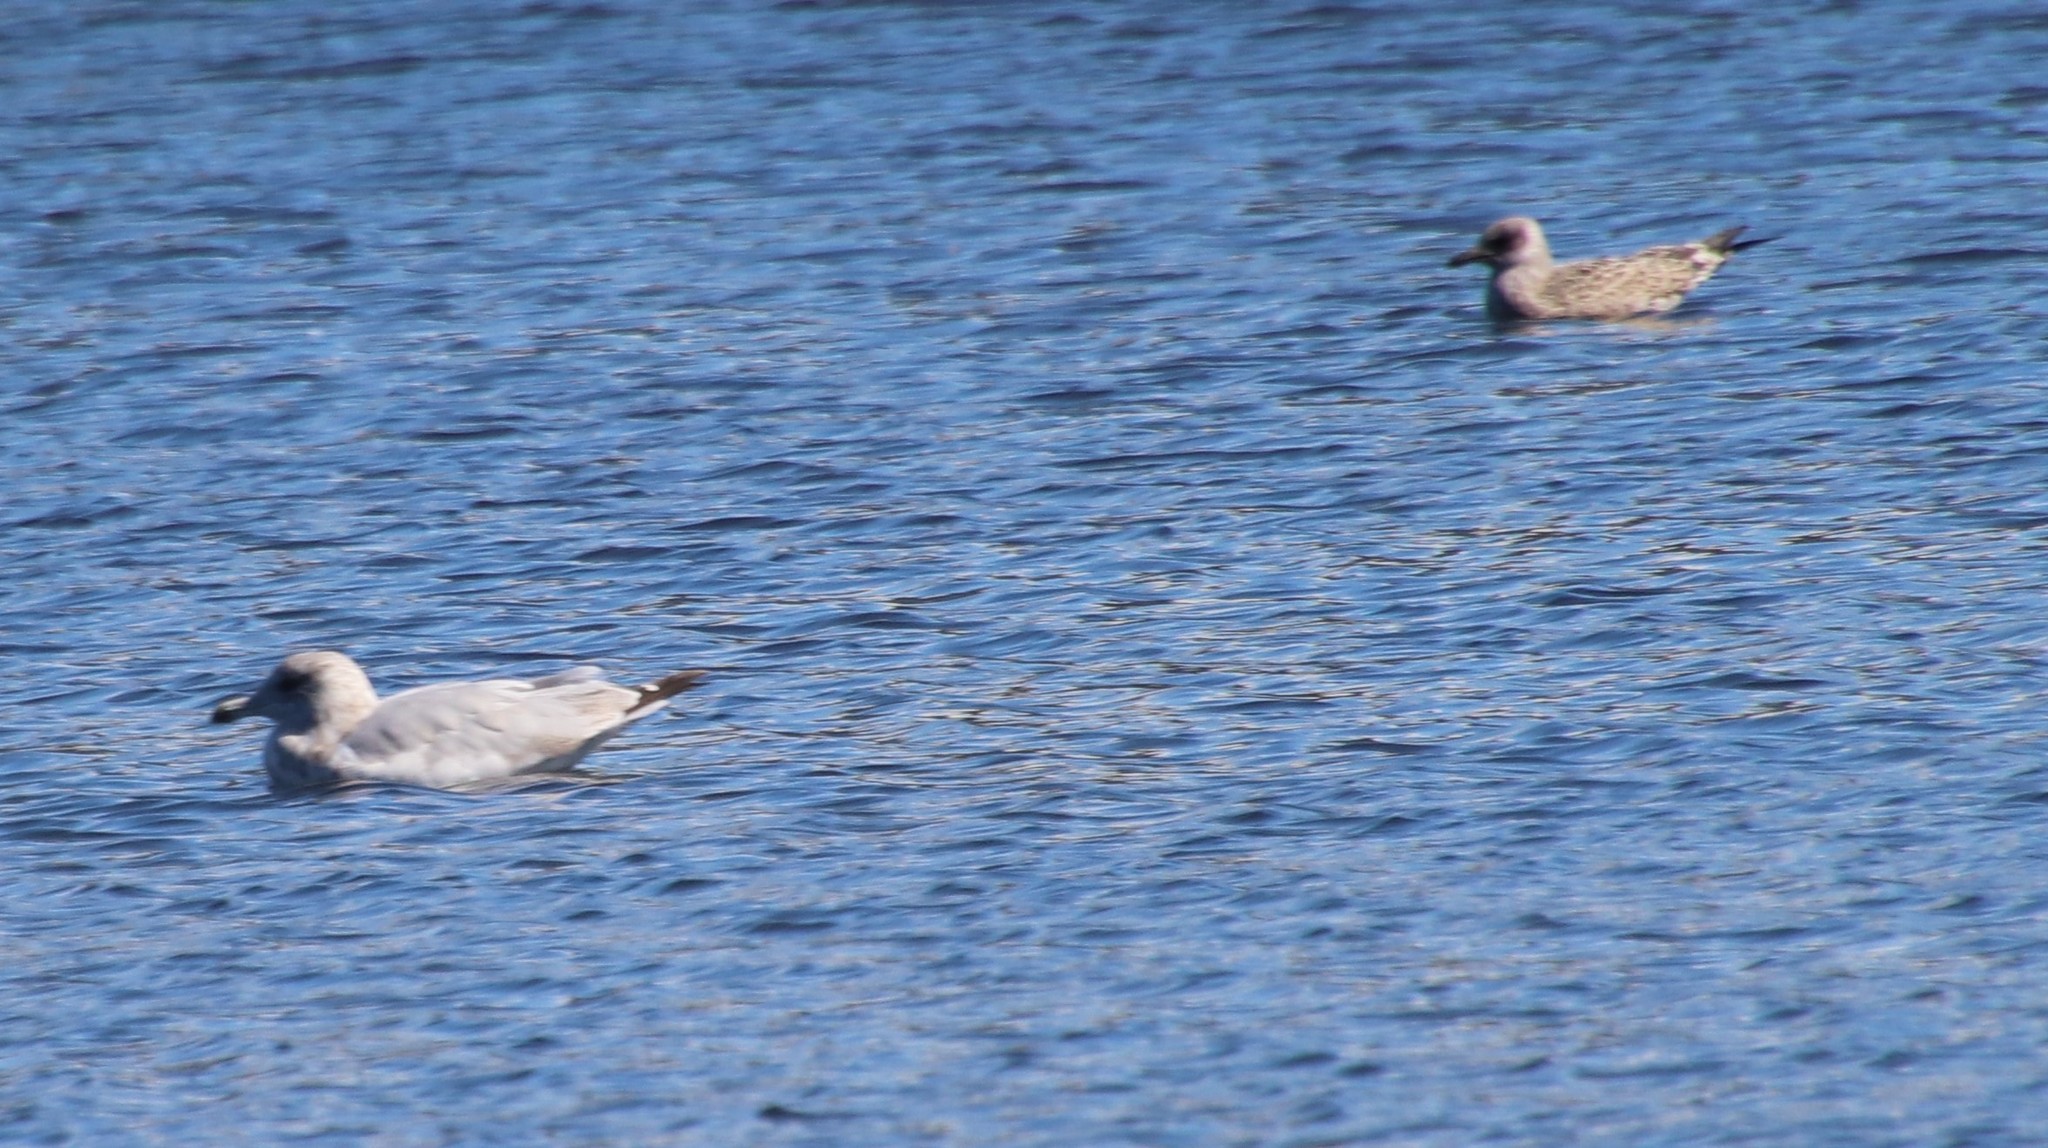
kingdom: Animalia
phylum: Chordata
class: Aves
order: Charadriiformes
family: Laridae
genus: Larus
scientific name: Larus argentatus
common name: Herring gull
